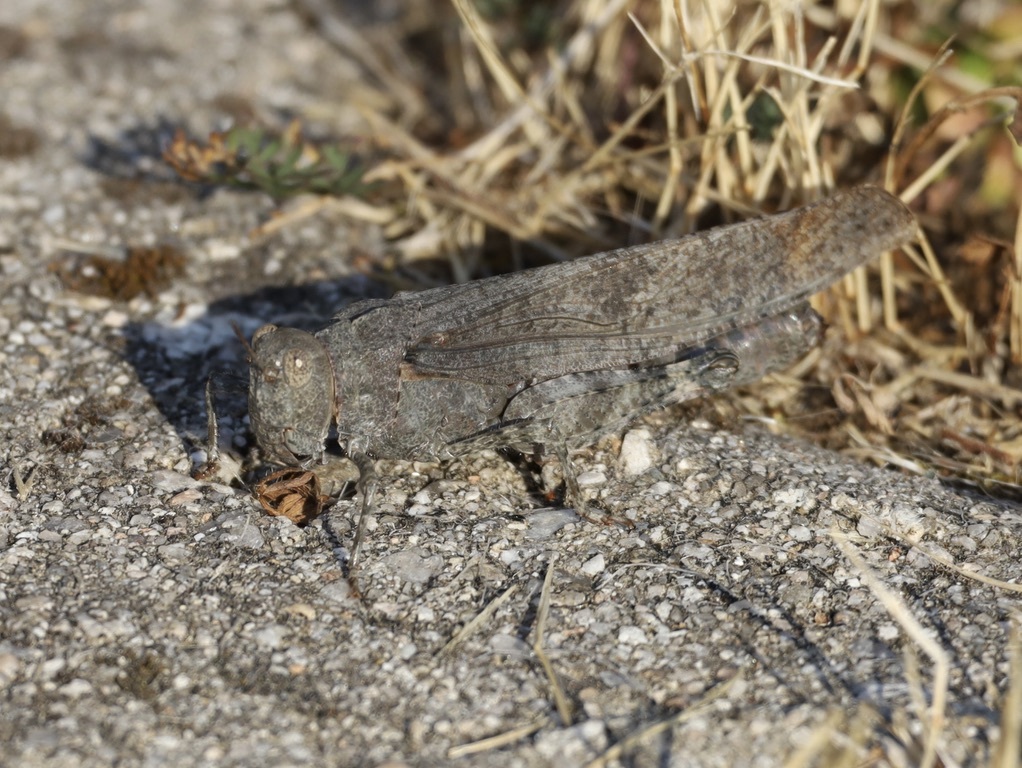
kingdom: Animalia
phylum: Arthropoda
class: Insecta
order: Orthoptera
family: Acrididae
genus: Dissosteira
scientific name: Dissosteira carolina
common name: Carolina grasshopper
